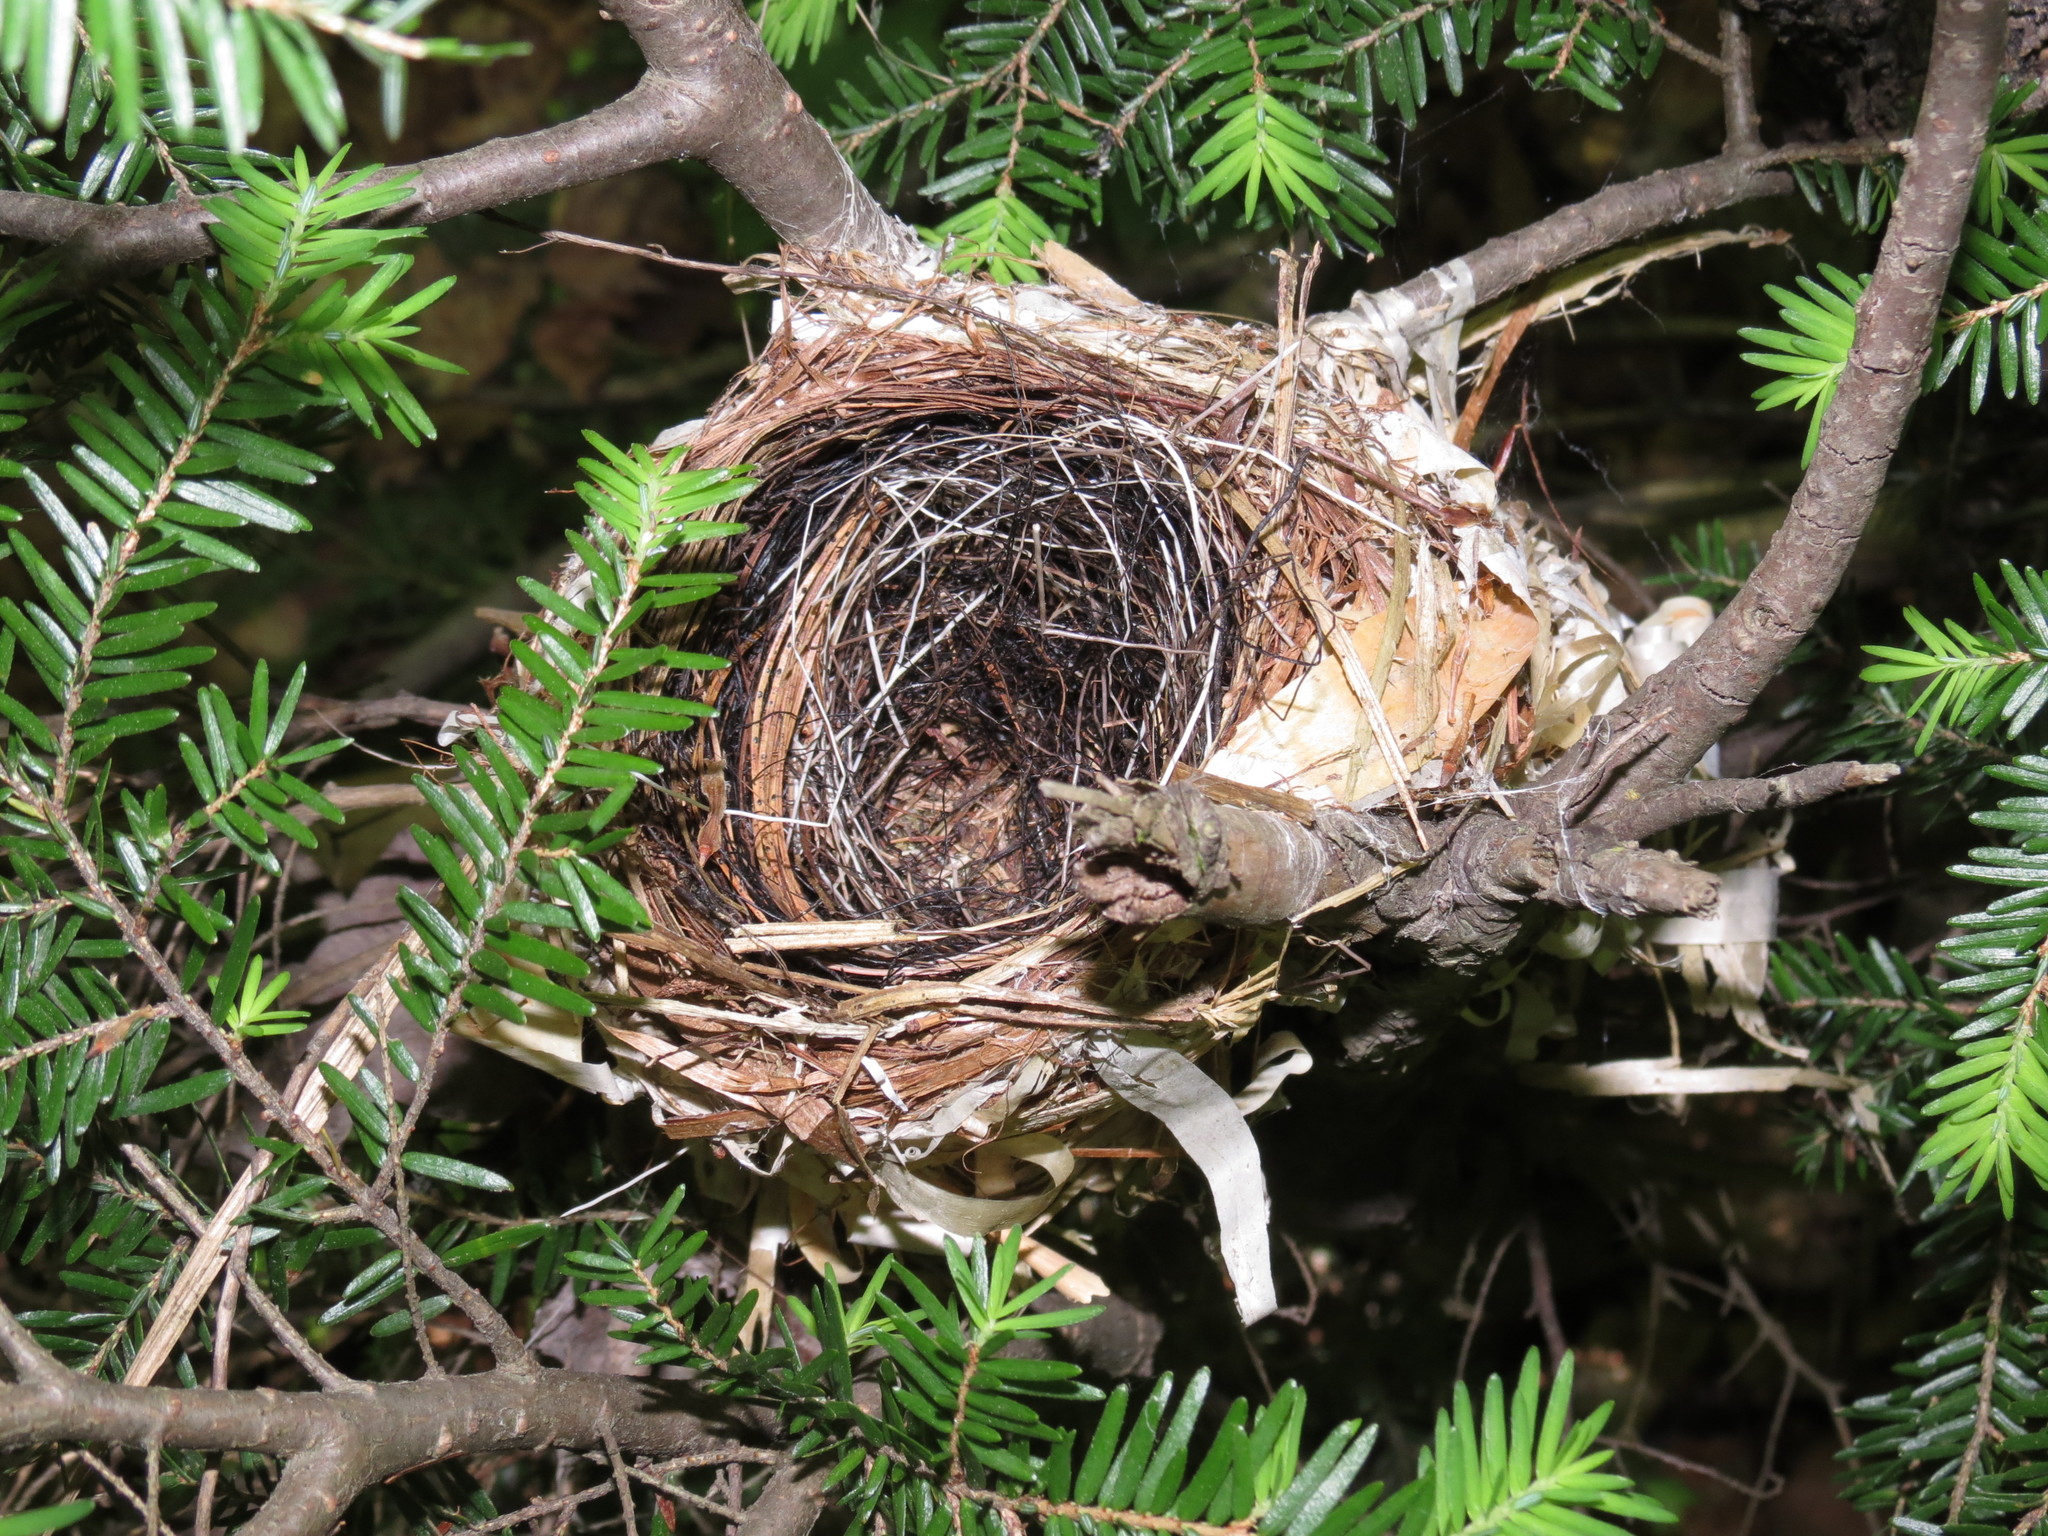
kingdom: Animalia
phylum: Chordata
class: Aves
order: Passeriformes
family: Parulidae
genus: Setophaga
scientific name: Setophaga caerulescens
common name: Black-throated blue warbler
